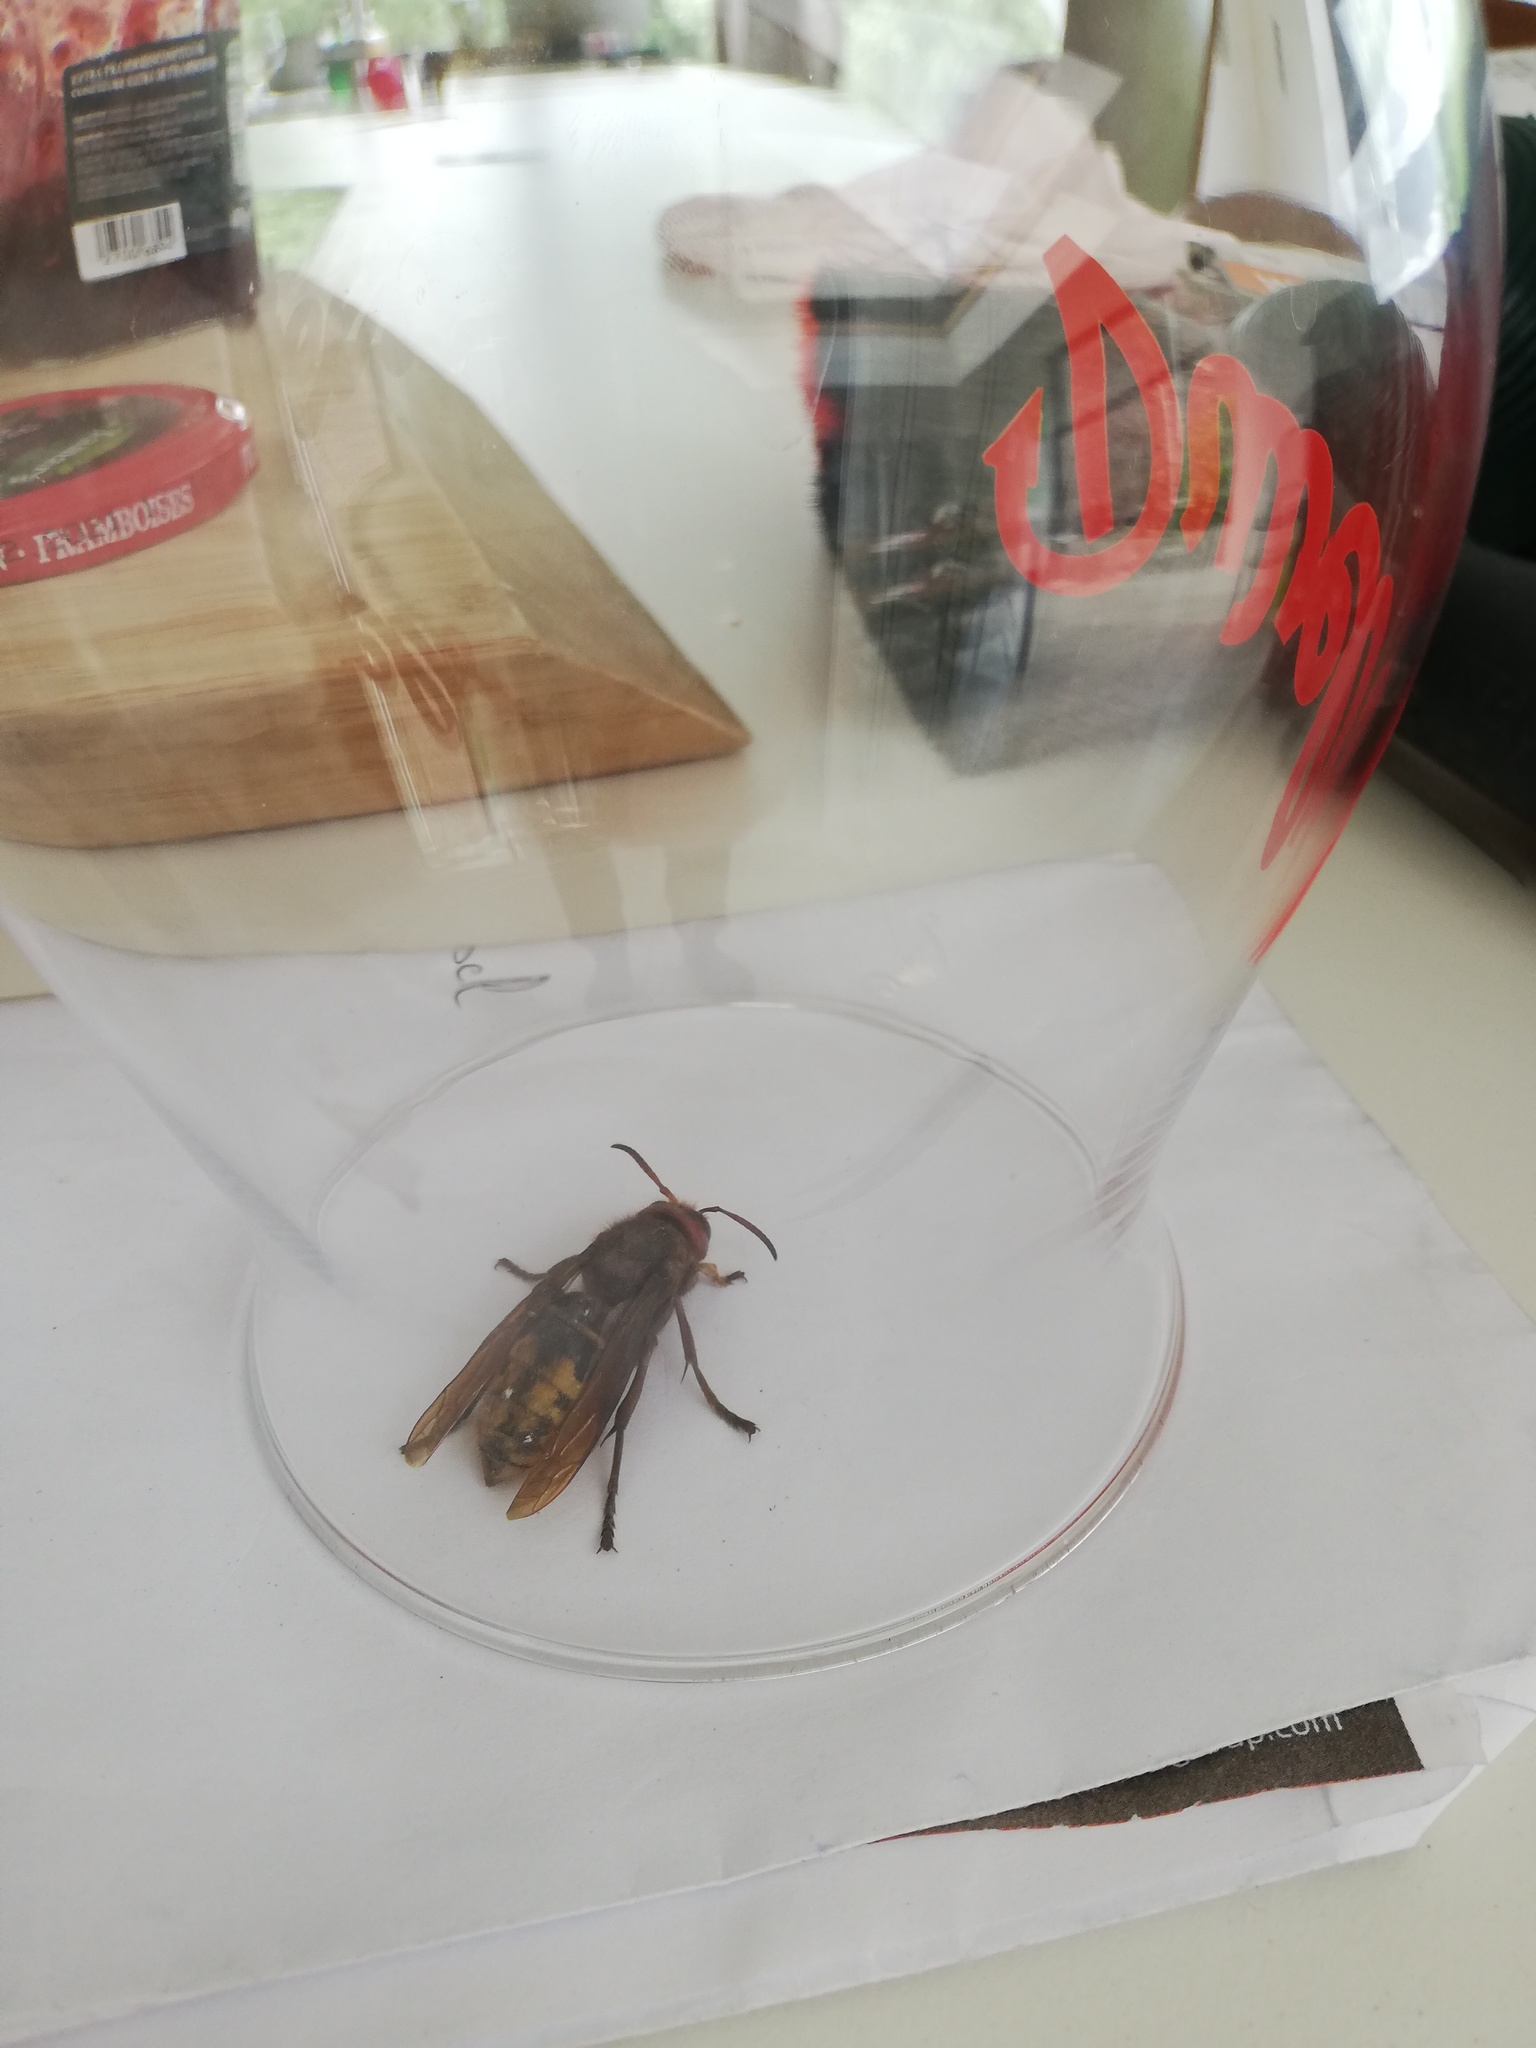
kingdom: Animalia
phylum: Arthropoda
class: Insecta
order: Hymenoptera
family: Vespidae
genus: Vespa
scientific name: Vespa crabro
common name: Hornet
